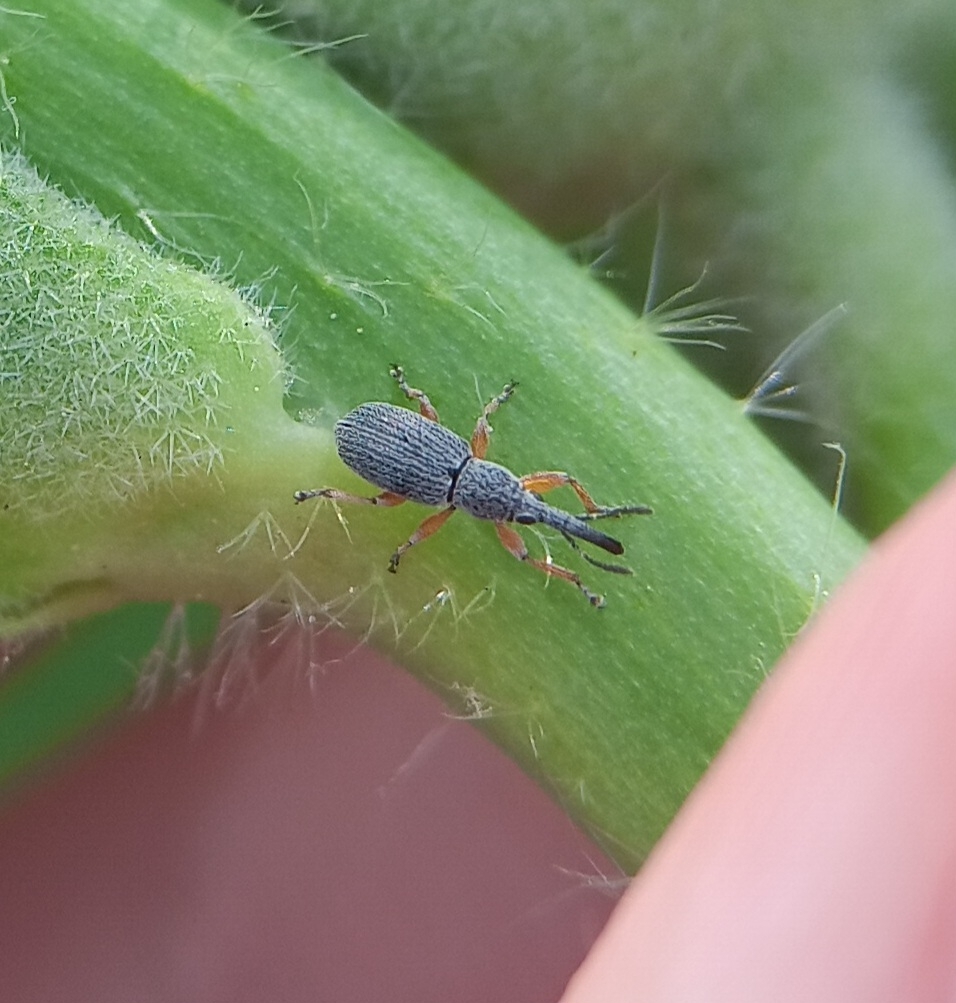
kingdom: Animalia
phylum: Arthropoda
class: Insecta
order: Coleoptera
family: Brentidae
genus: Rhopalapion
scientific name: Rhopalapion longirostre
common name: Hollyhock weevil
